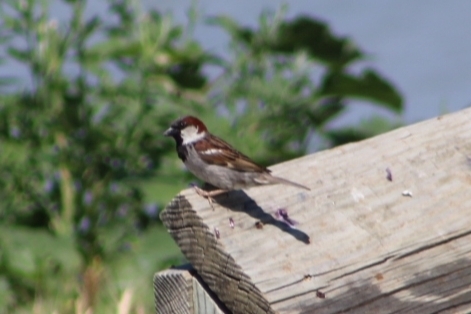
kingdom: Animalia
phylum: Chordata
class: Aves
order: Passeriformes
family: Passeridae
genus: Passer
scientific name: Passer domesticus
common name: House sparrow
